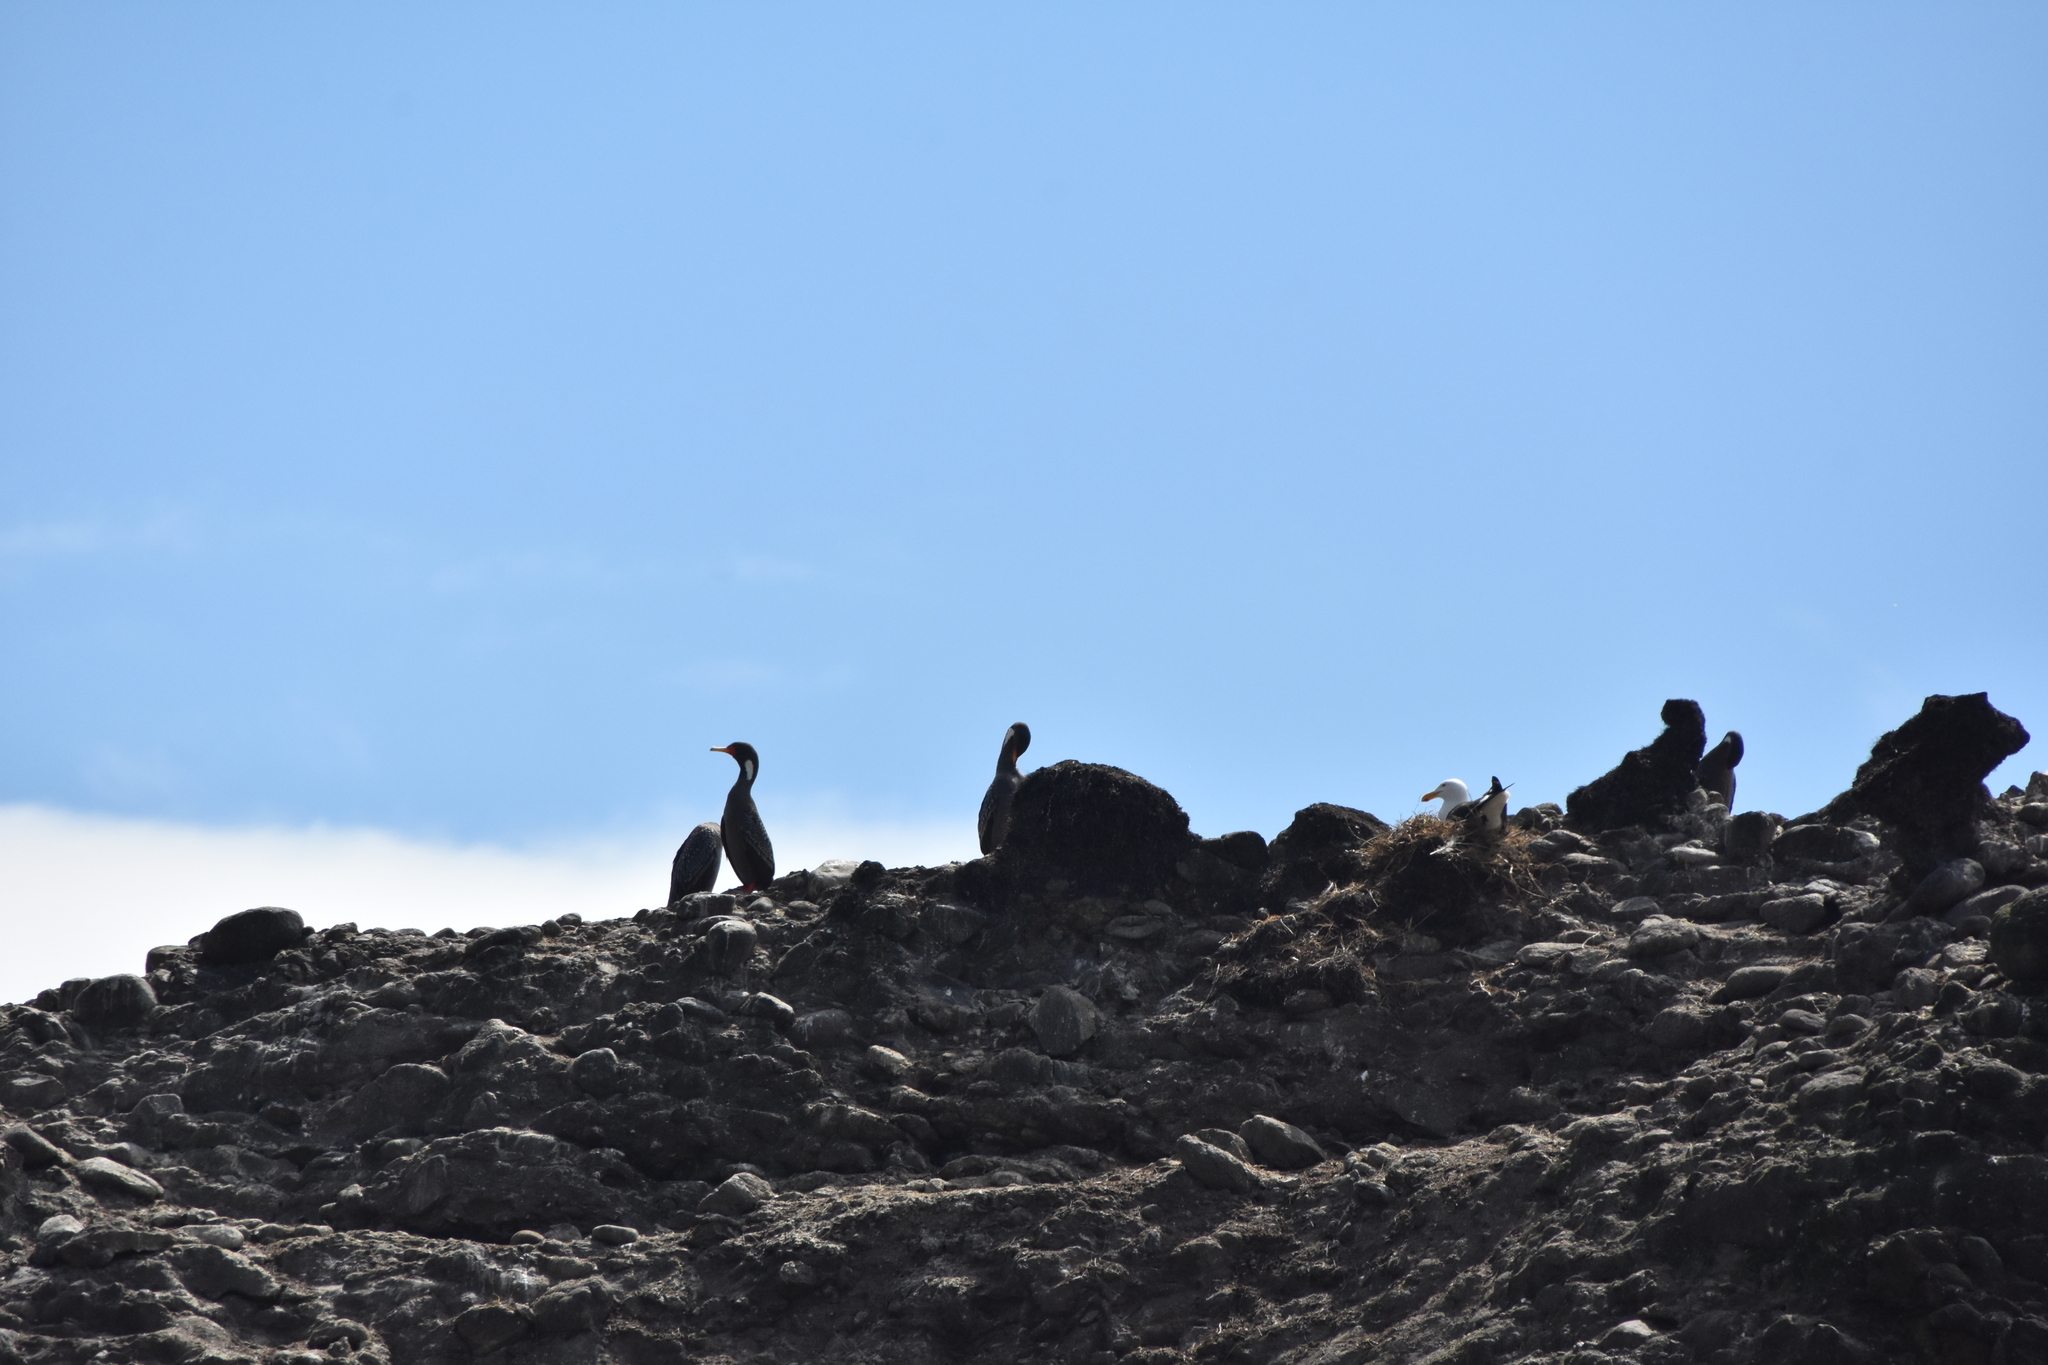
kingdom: Animalia
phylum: Chordata
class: Aves
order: Suliformes
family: Phalacrocoracidae
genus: Phalacrocorax
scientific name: Phalacrocorax gaimardi
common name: Red-legged cormorant
